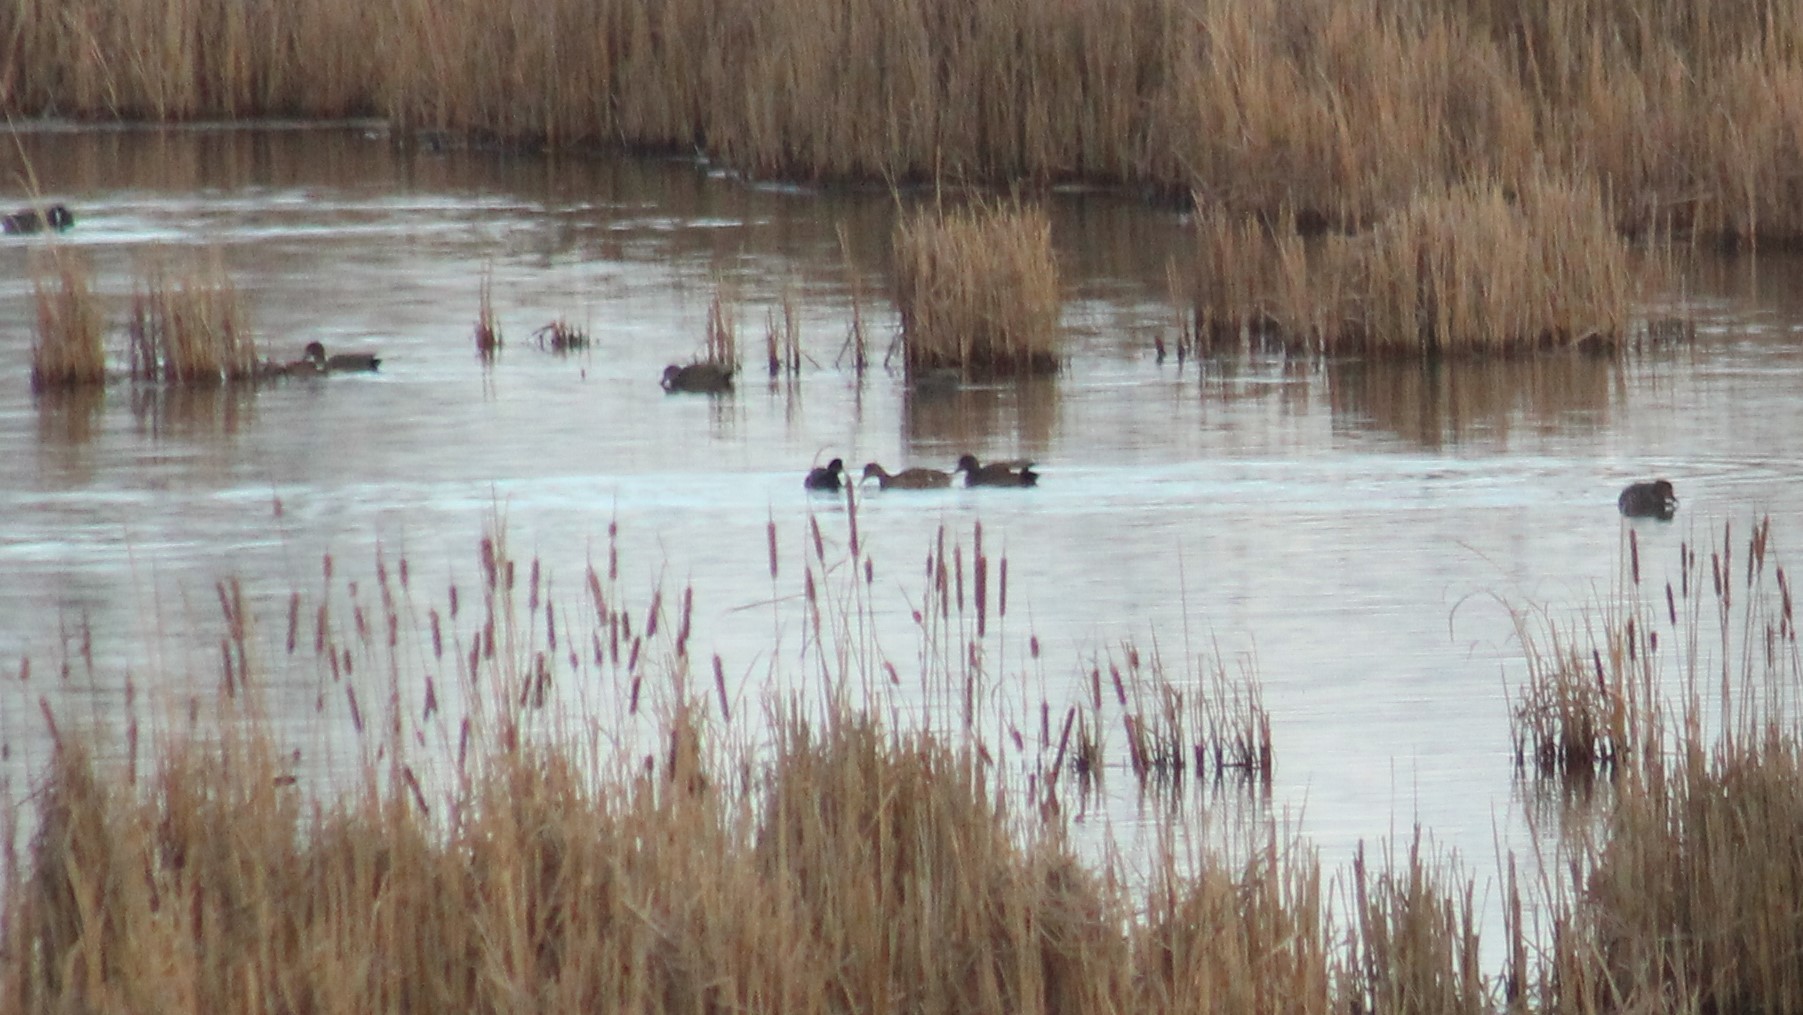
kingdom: Animalia
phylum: Chordata
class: Aves
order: Anseriformes
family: Anatidae
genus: Mareca
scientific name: Mareca strepera
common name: Gadwall
